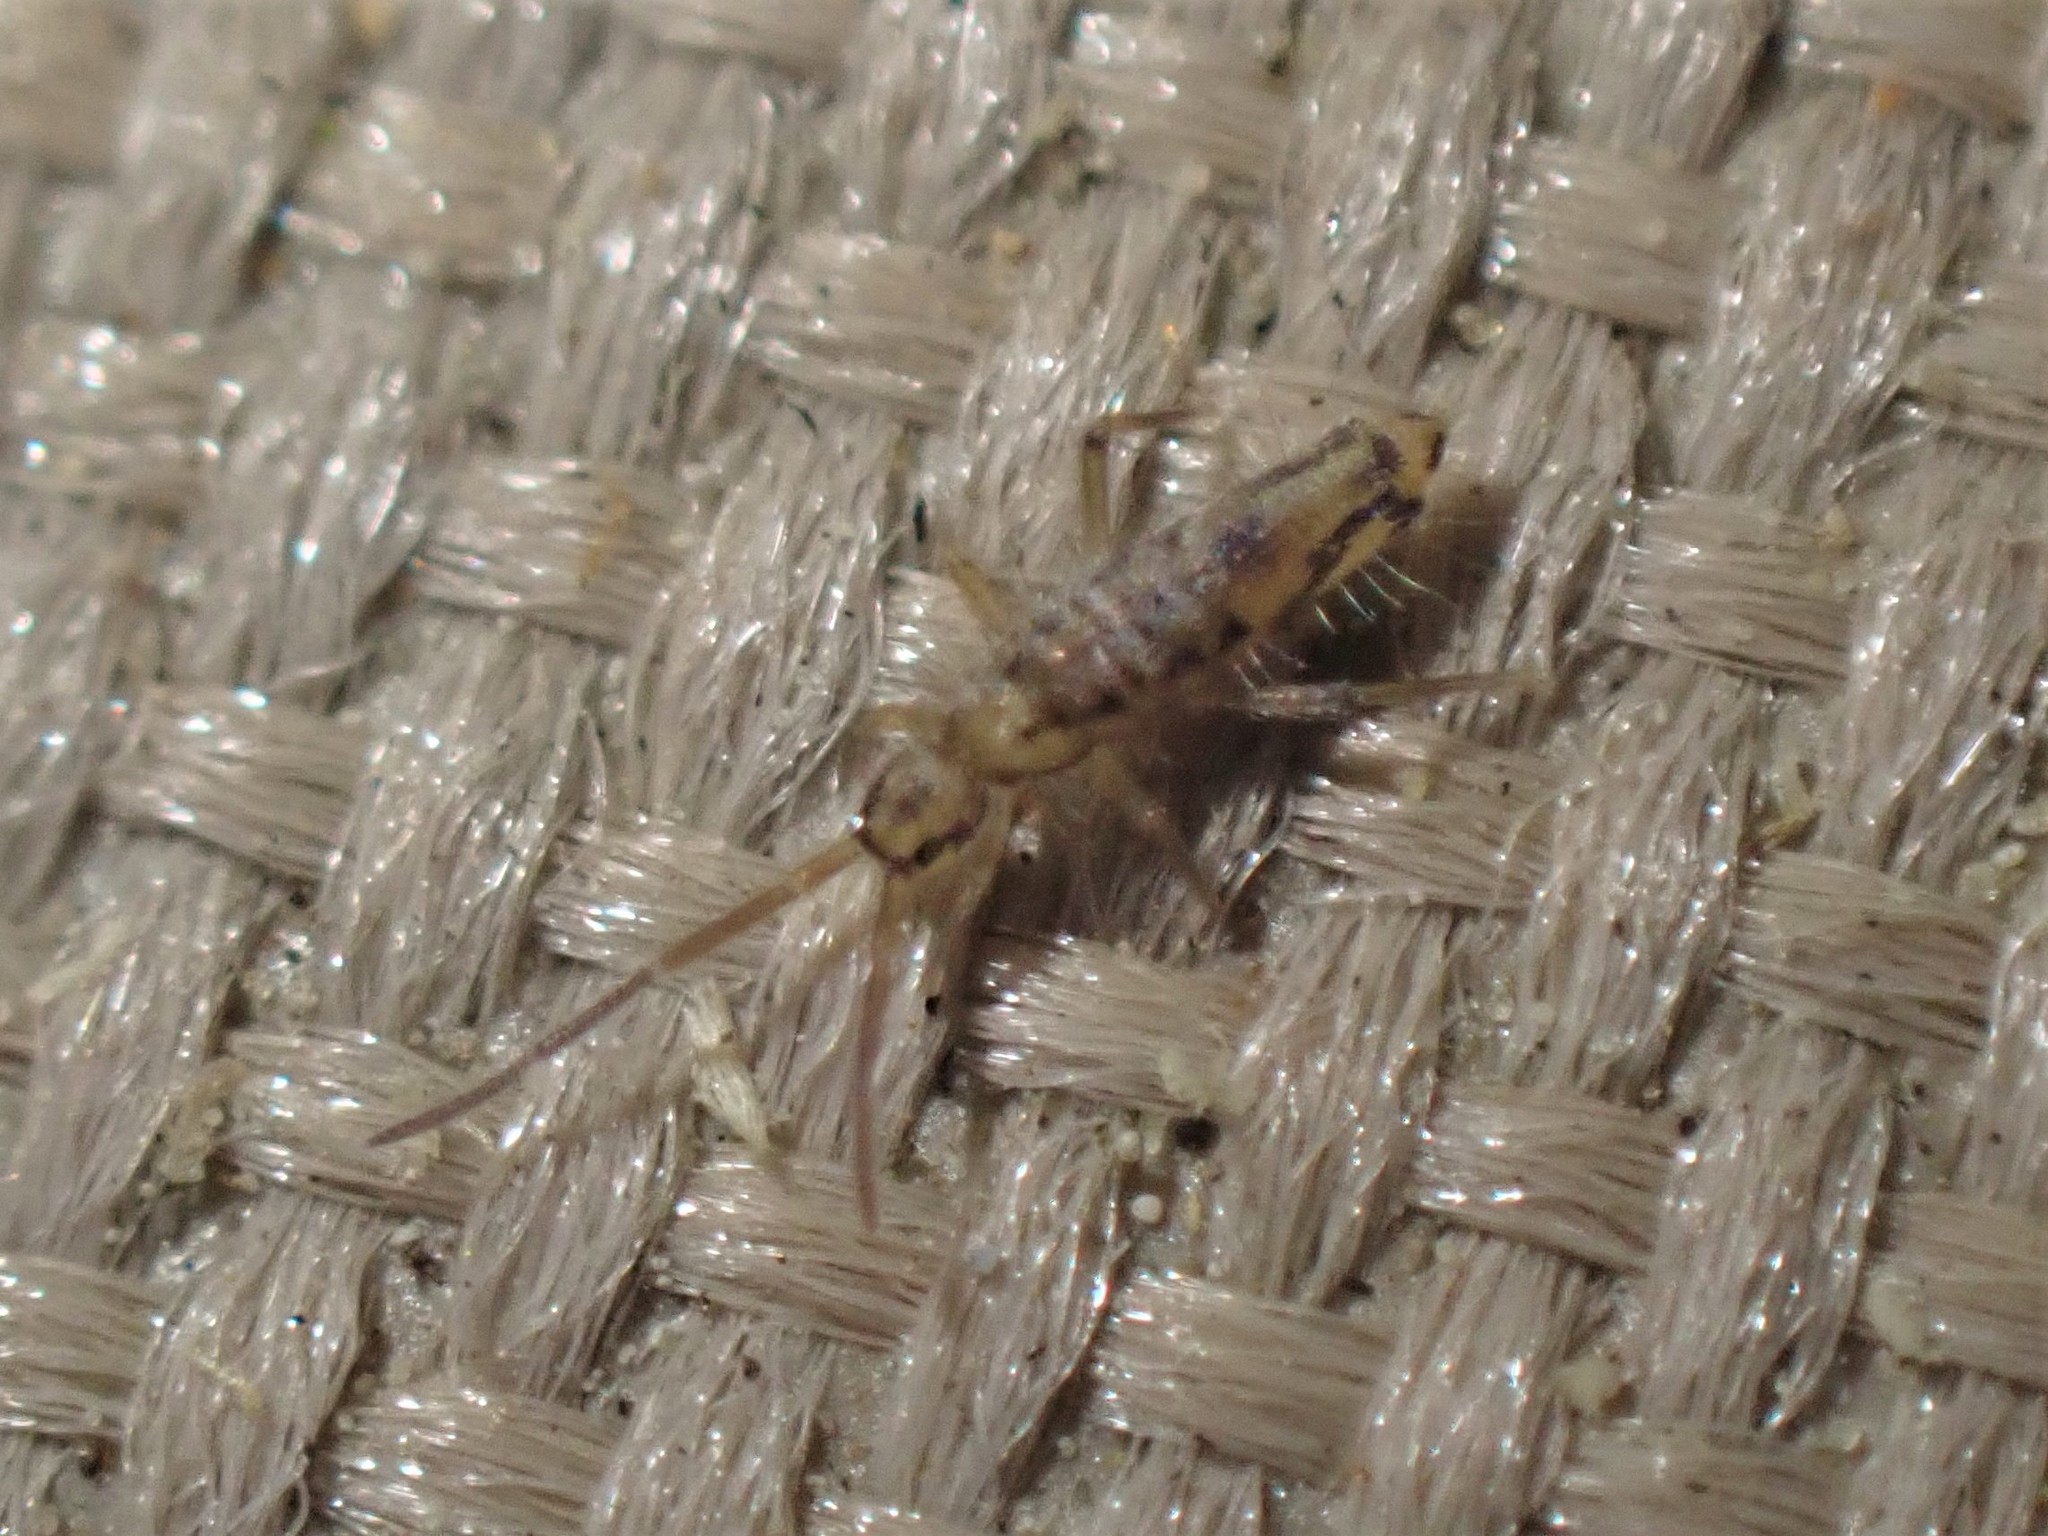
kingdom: Animalia
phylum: Arthropoda
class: Collembola
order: Entomobryomorpha
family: Entomobryidae
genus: Entomobrya
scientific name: Entomobrya katzi
